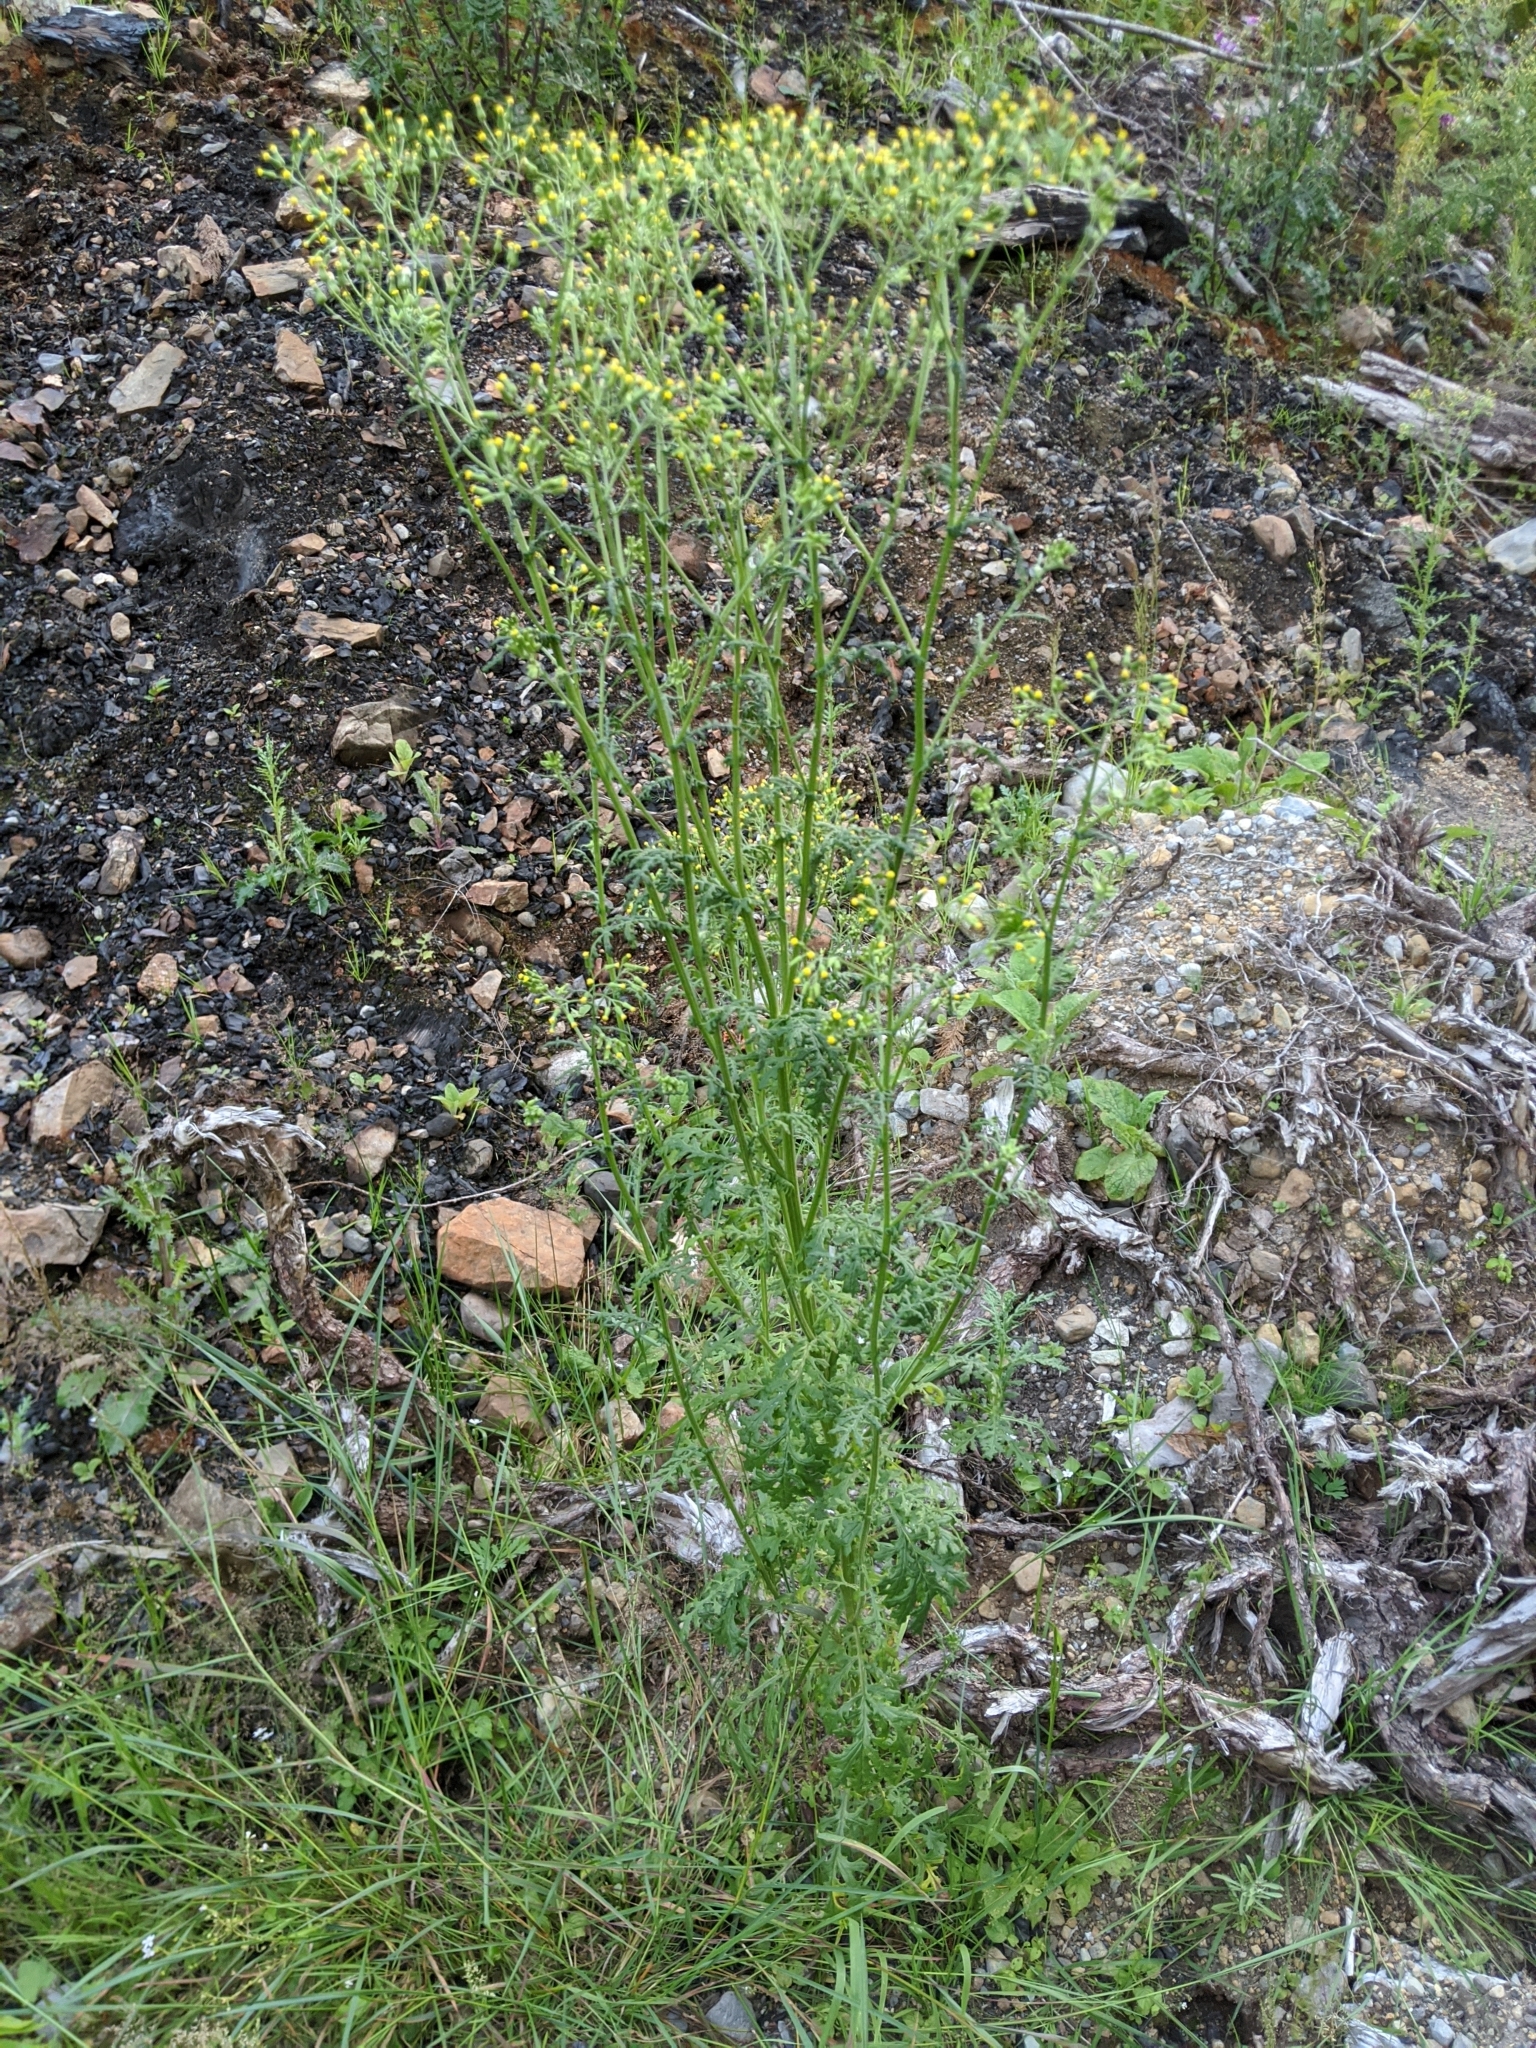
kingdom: Plantae
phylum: Tracheophyta
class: Magnoliopsida
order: Asterales
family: Asteraceae
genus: Senecio
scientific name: Senecio sylvaticus
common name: Woodland ragwort
